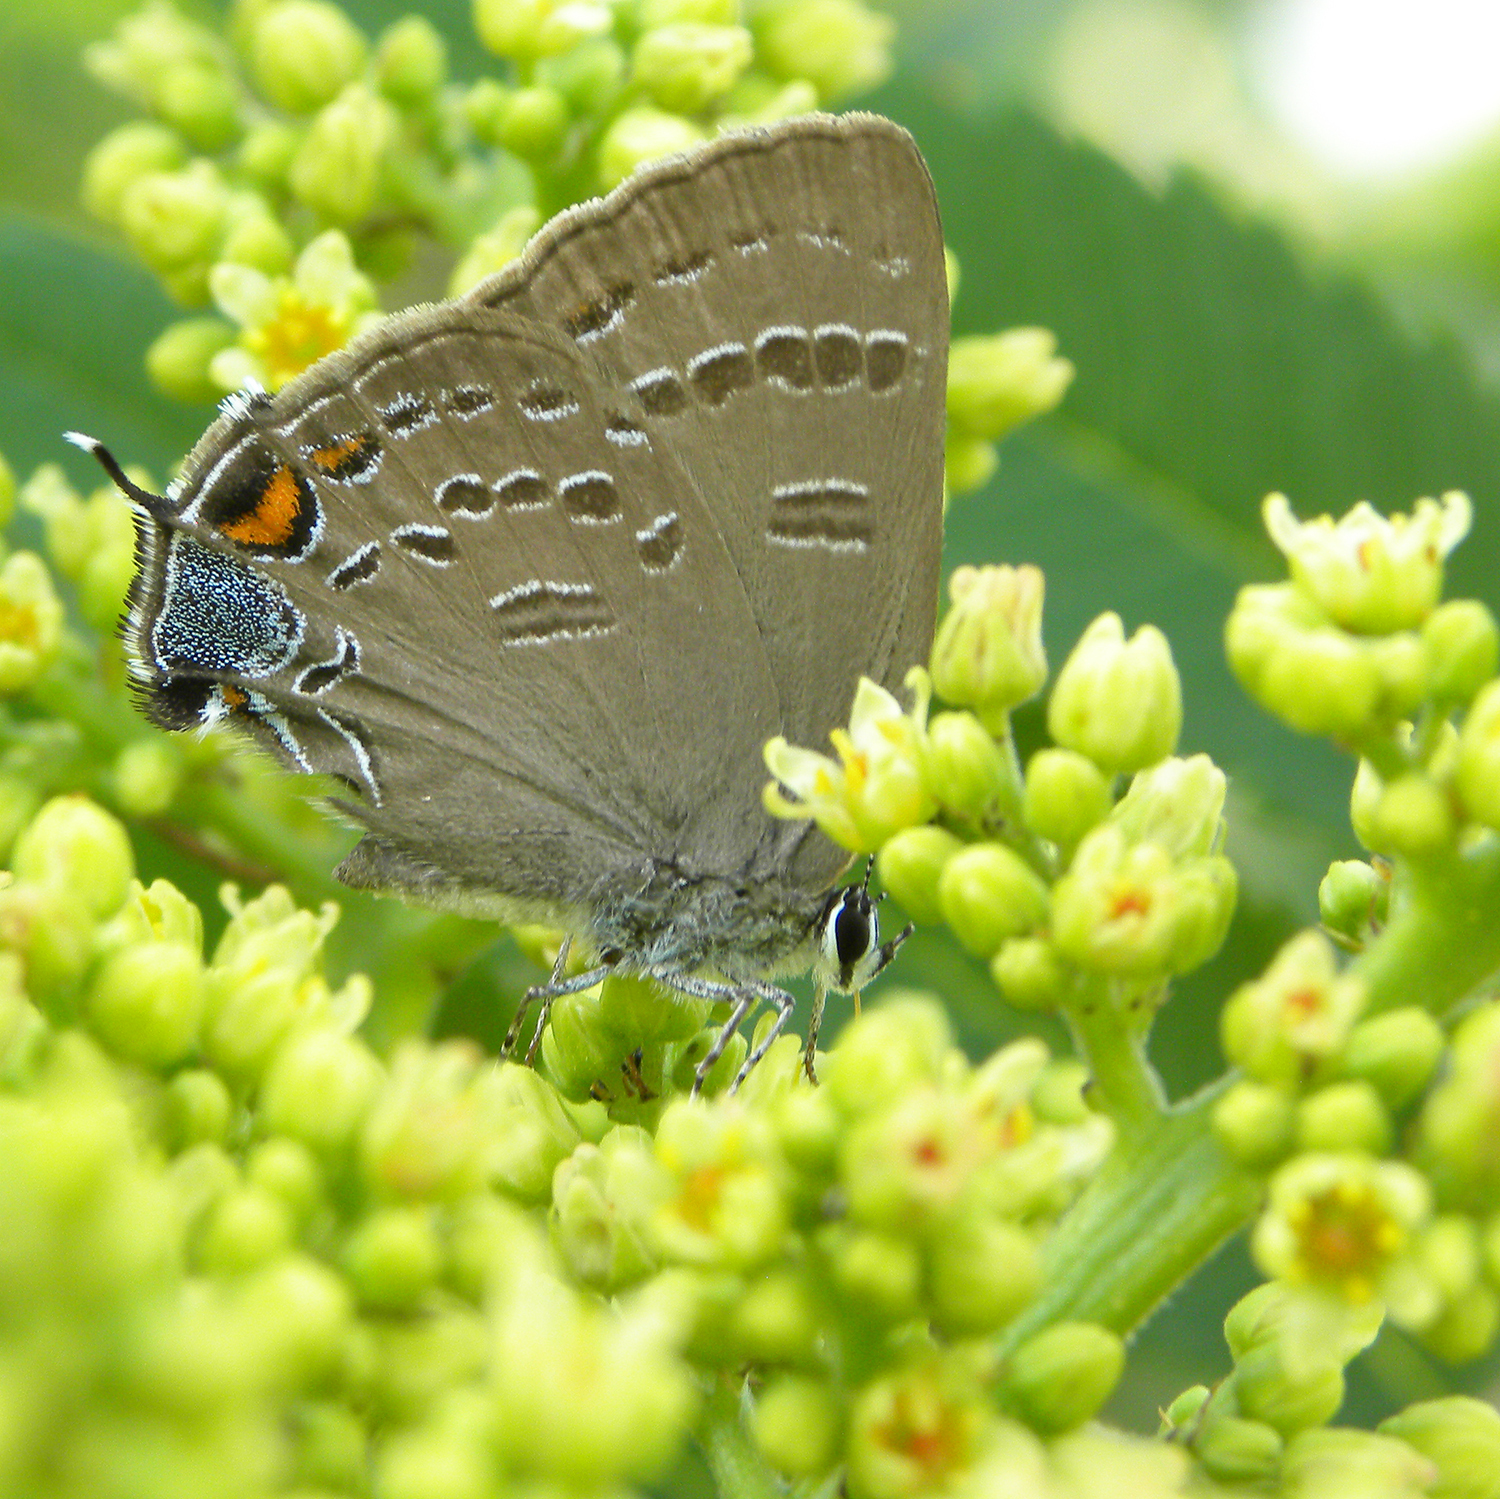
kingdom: Animalia
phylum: Arthropoda
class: Insecta
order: Lepidoptera
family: Lycaenidae
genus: Satyrium
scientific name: Satyrium calanus
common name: Banded hairstreak
